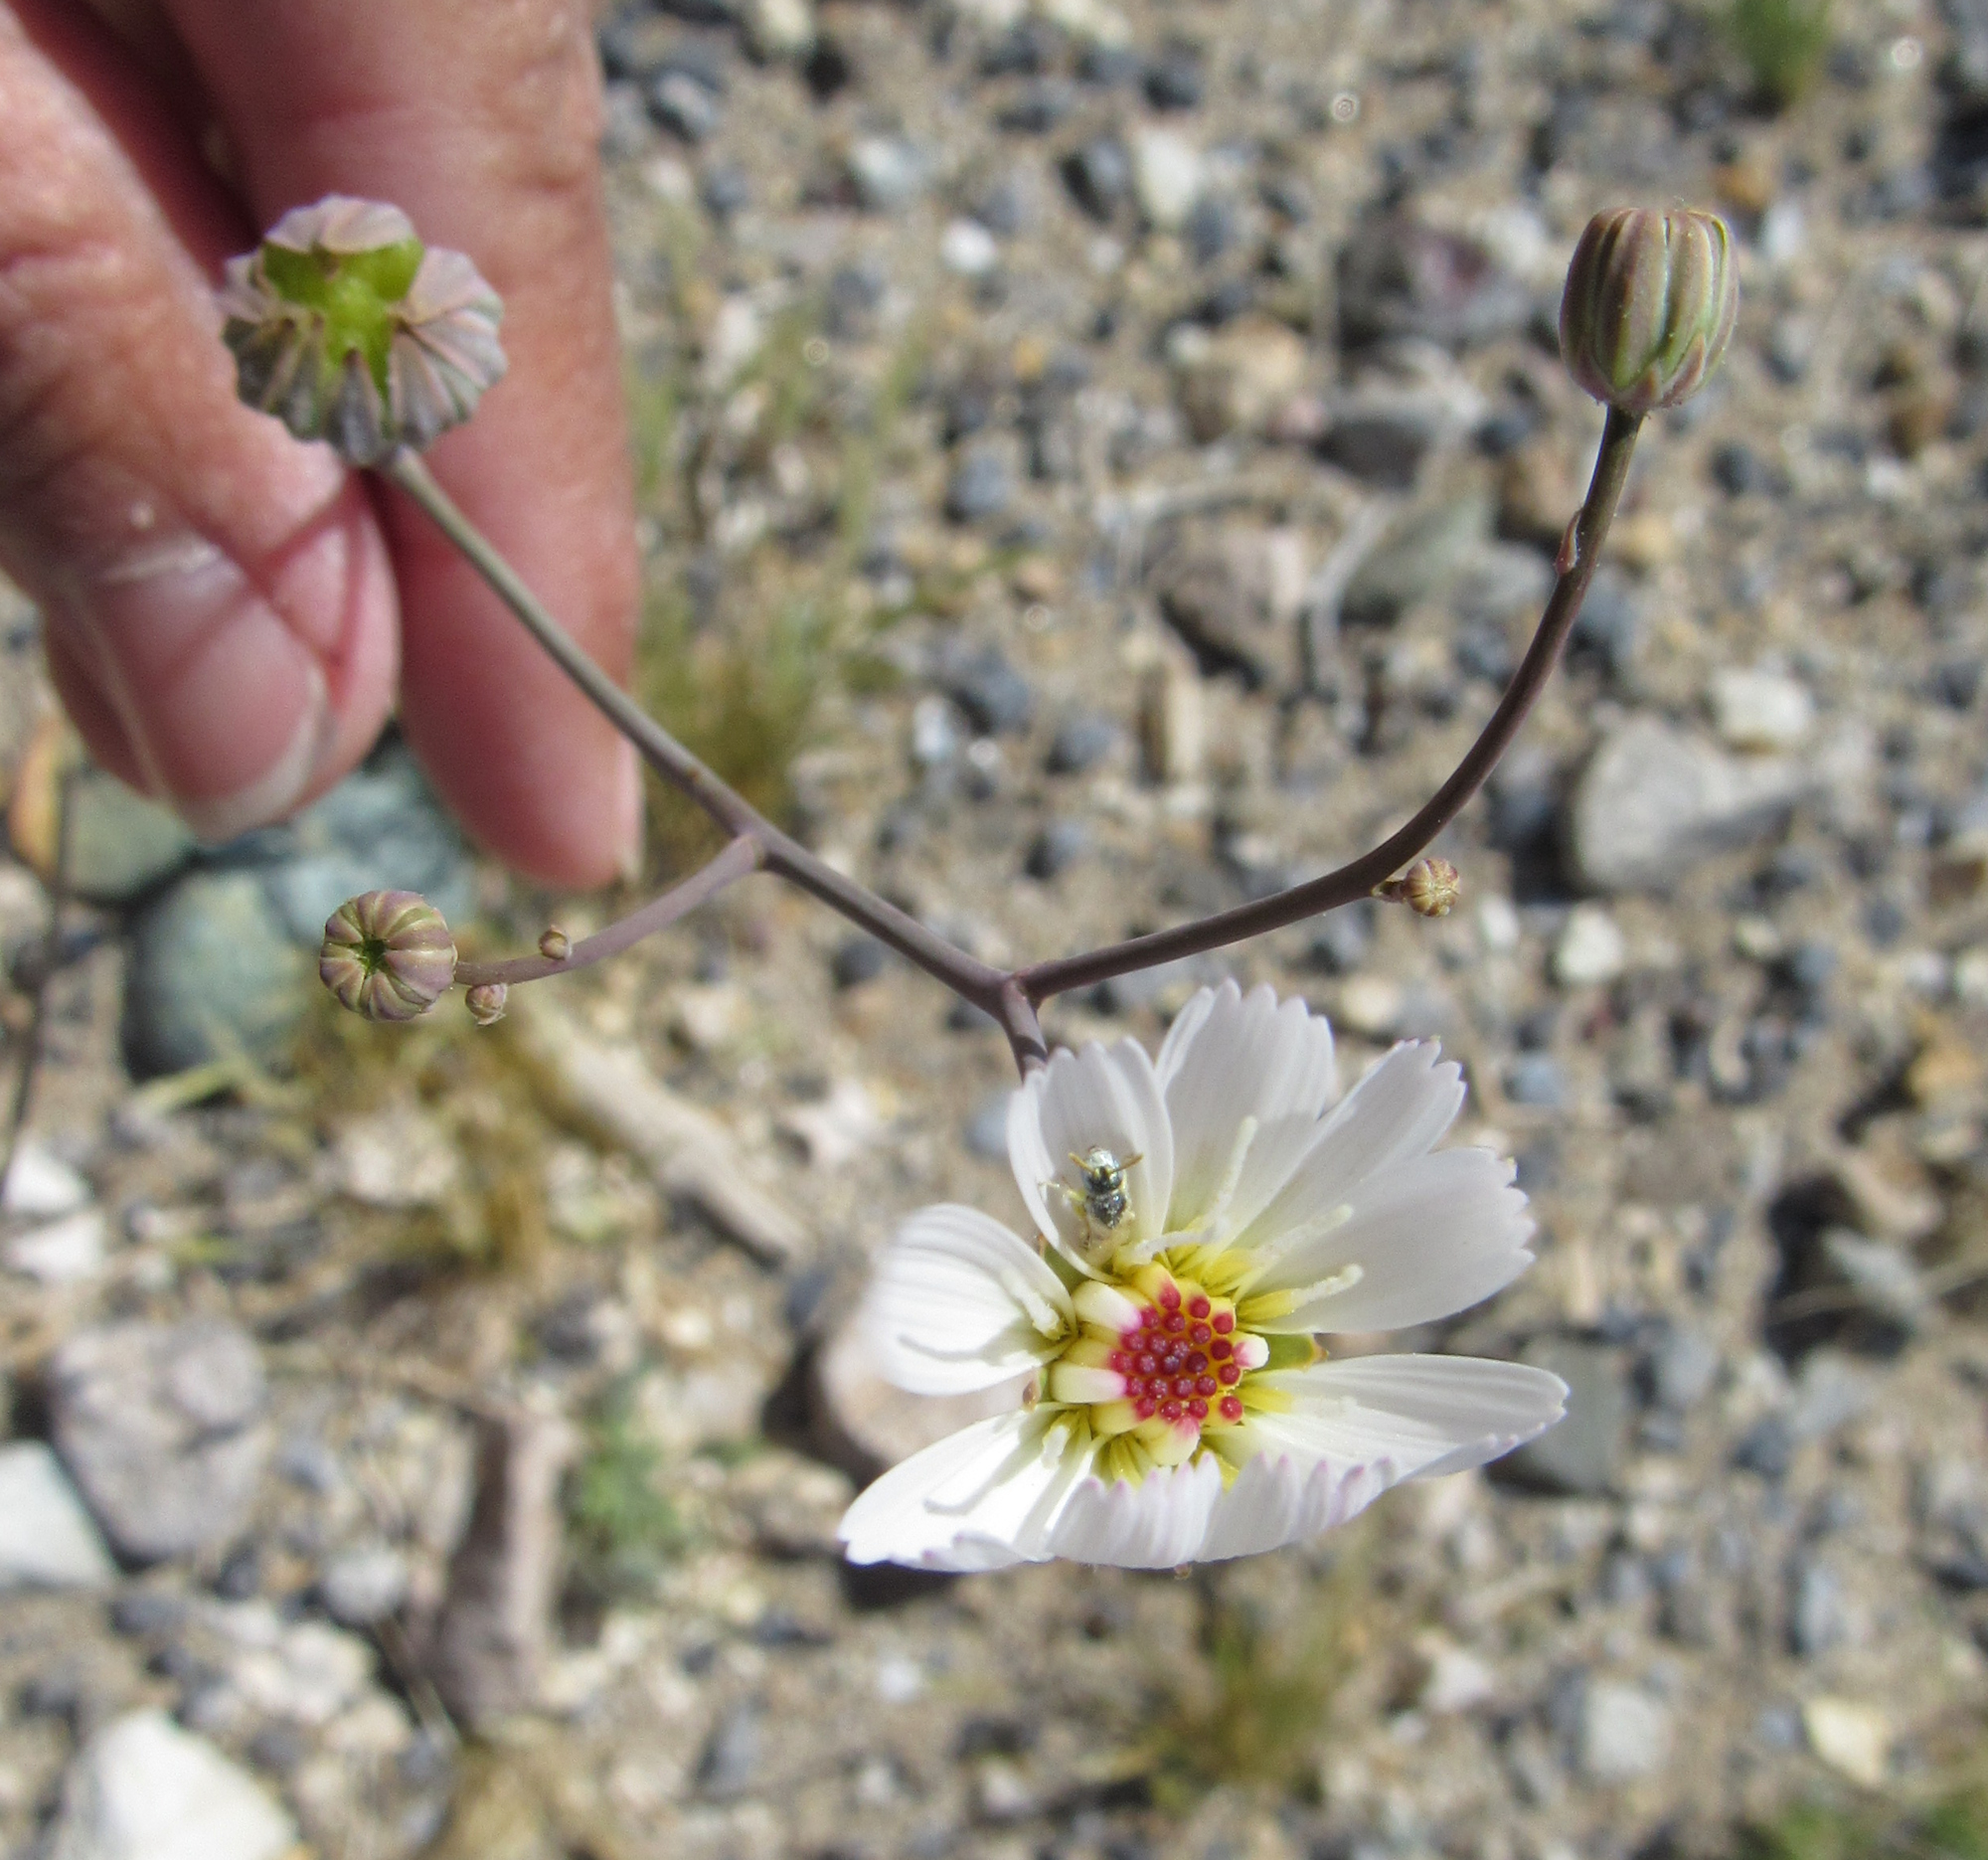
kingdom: Plantae
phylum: Tracheophyta
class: Magnoliopsida
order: Asterales
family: Asteraceae
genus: Atrichoseris
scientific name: Atrichoseris platyphylla
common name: Tobaccoweed
